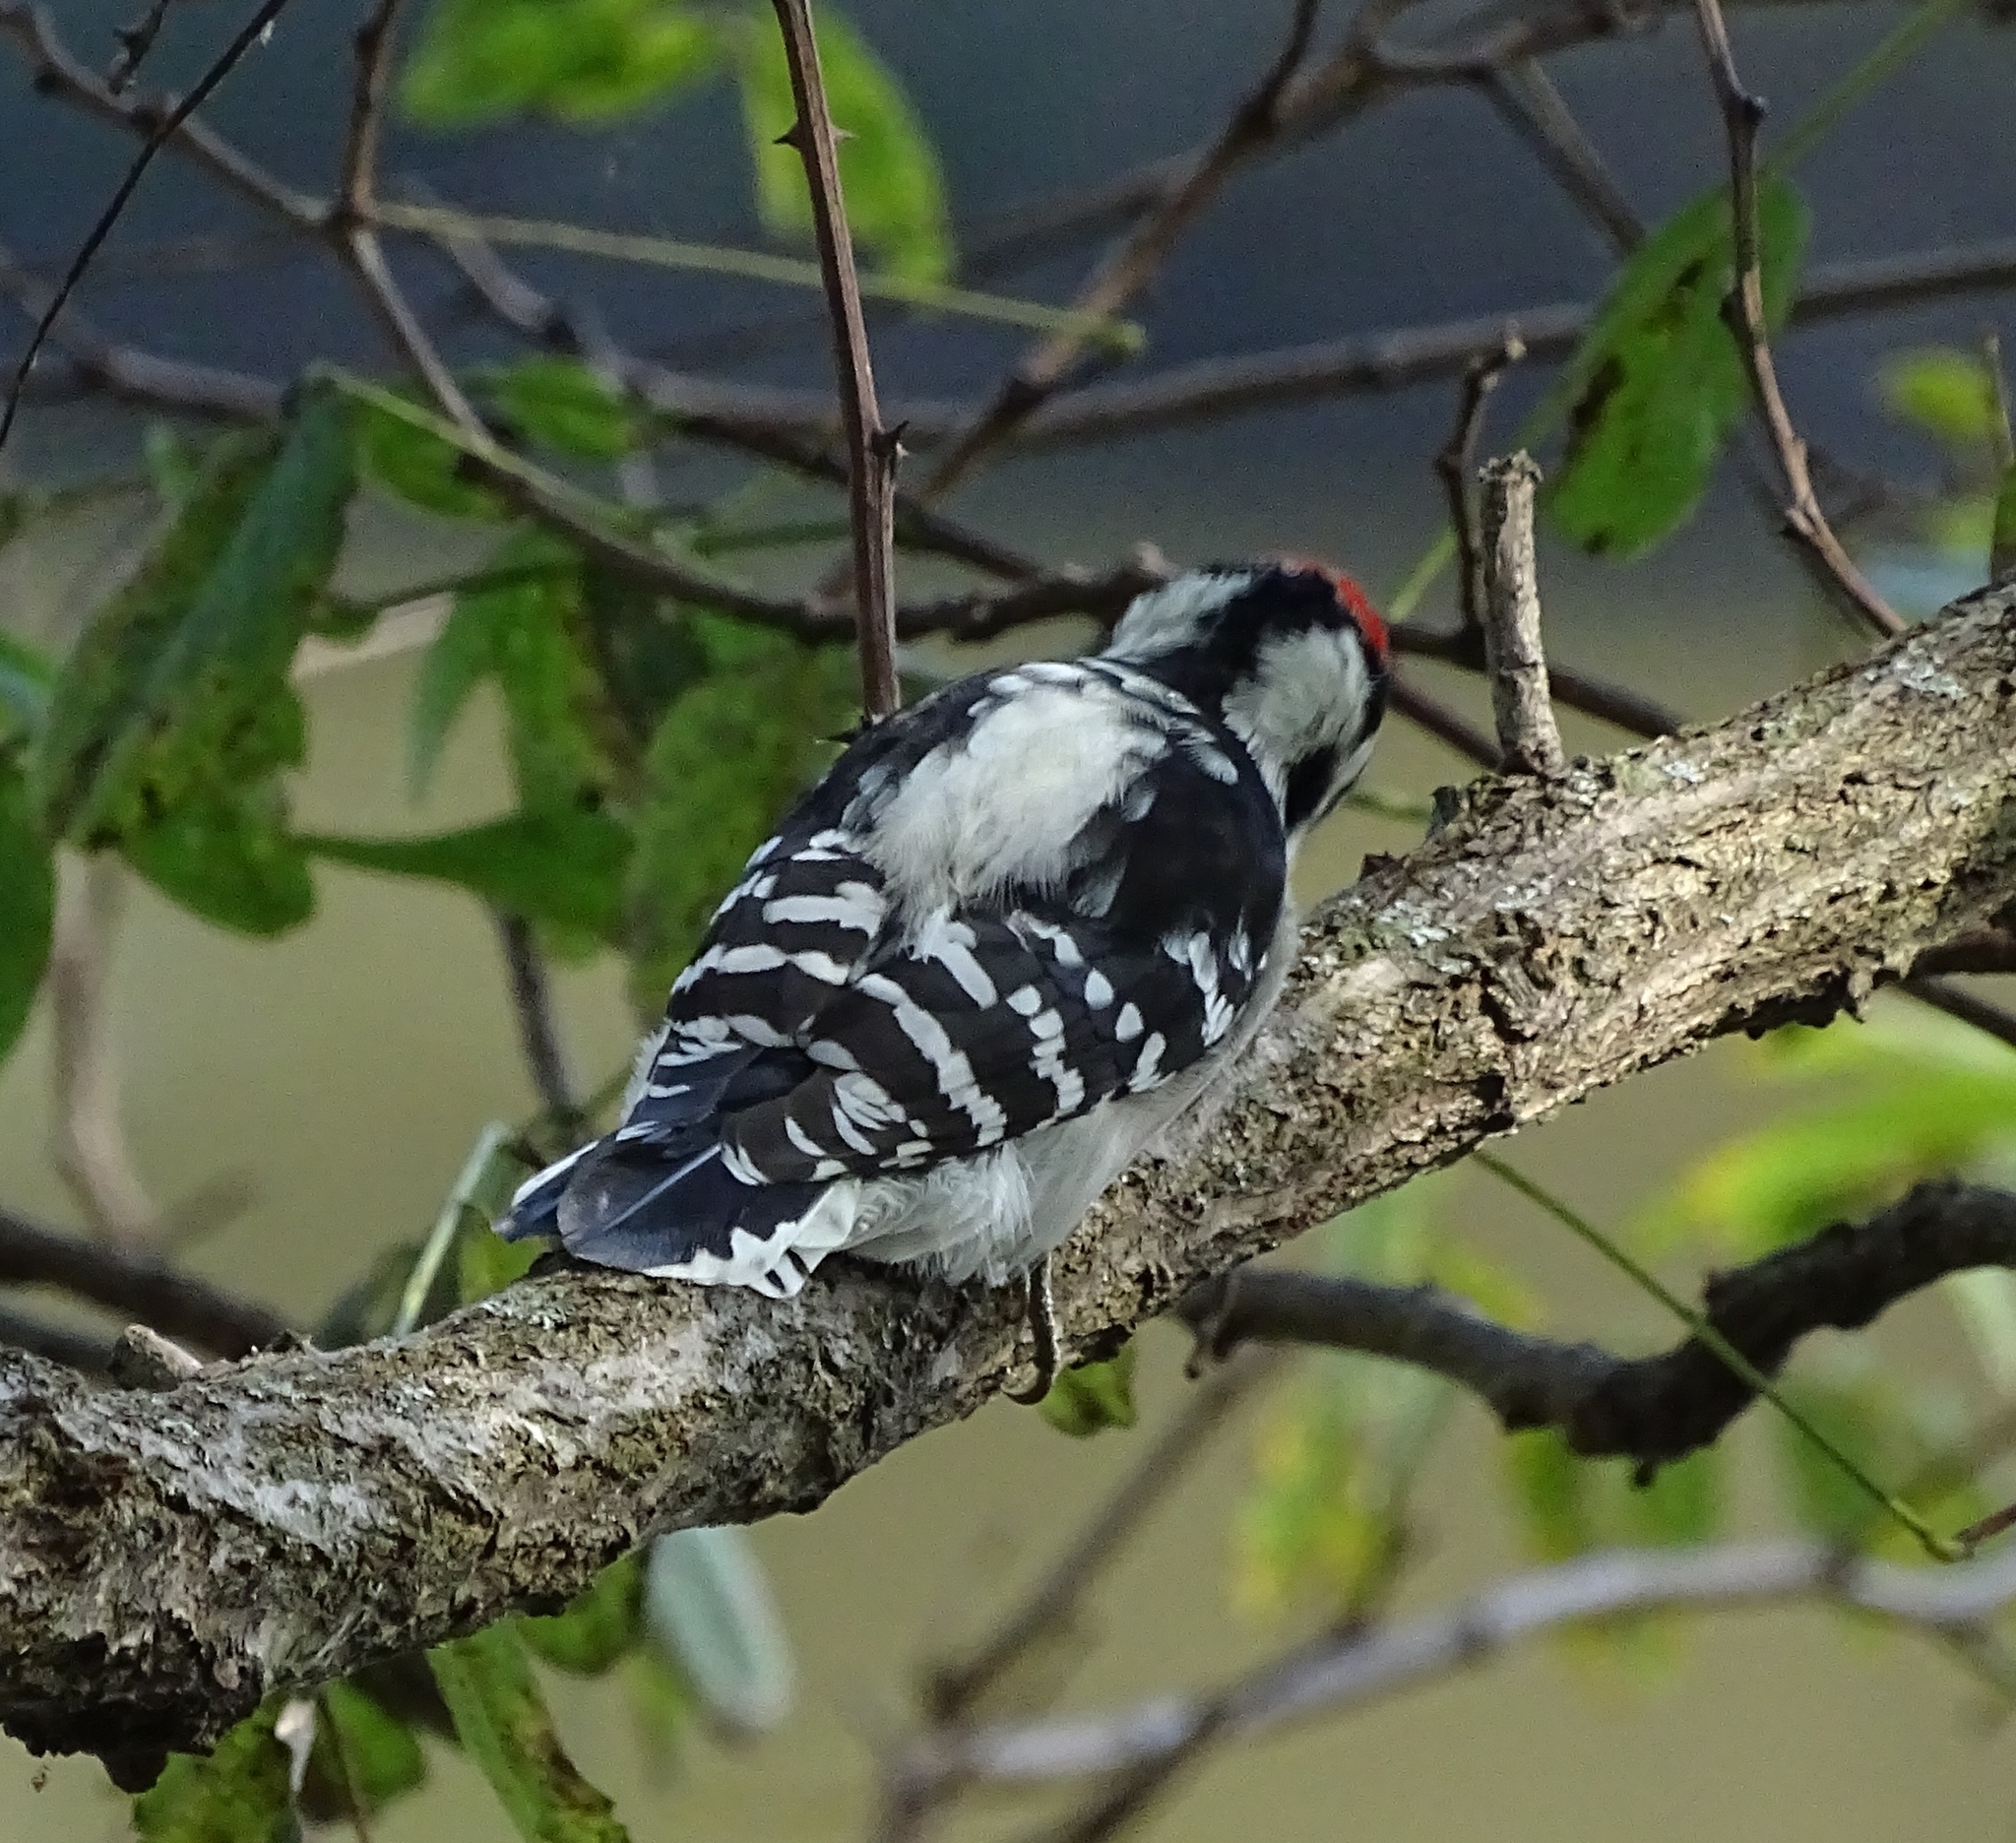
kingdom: Animalia
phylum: Chordata
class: Aves
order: Piciformes
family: Picidae
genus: Dryobates
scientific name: Dryobates pubescens
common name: Downy woodpecker
